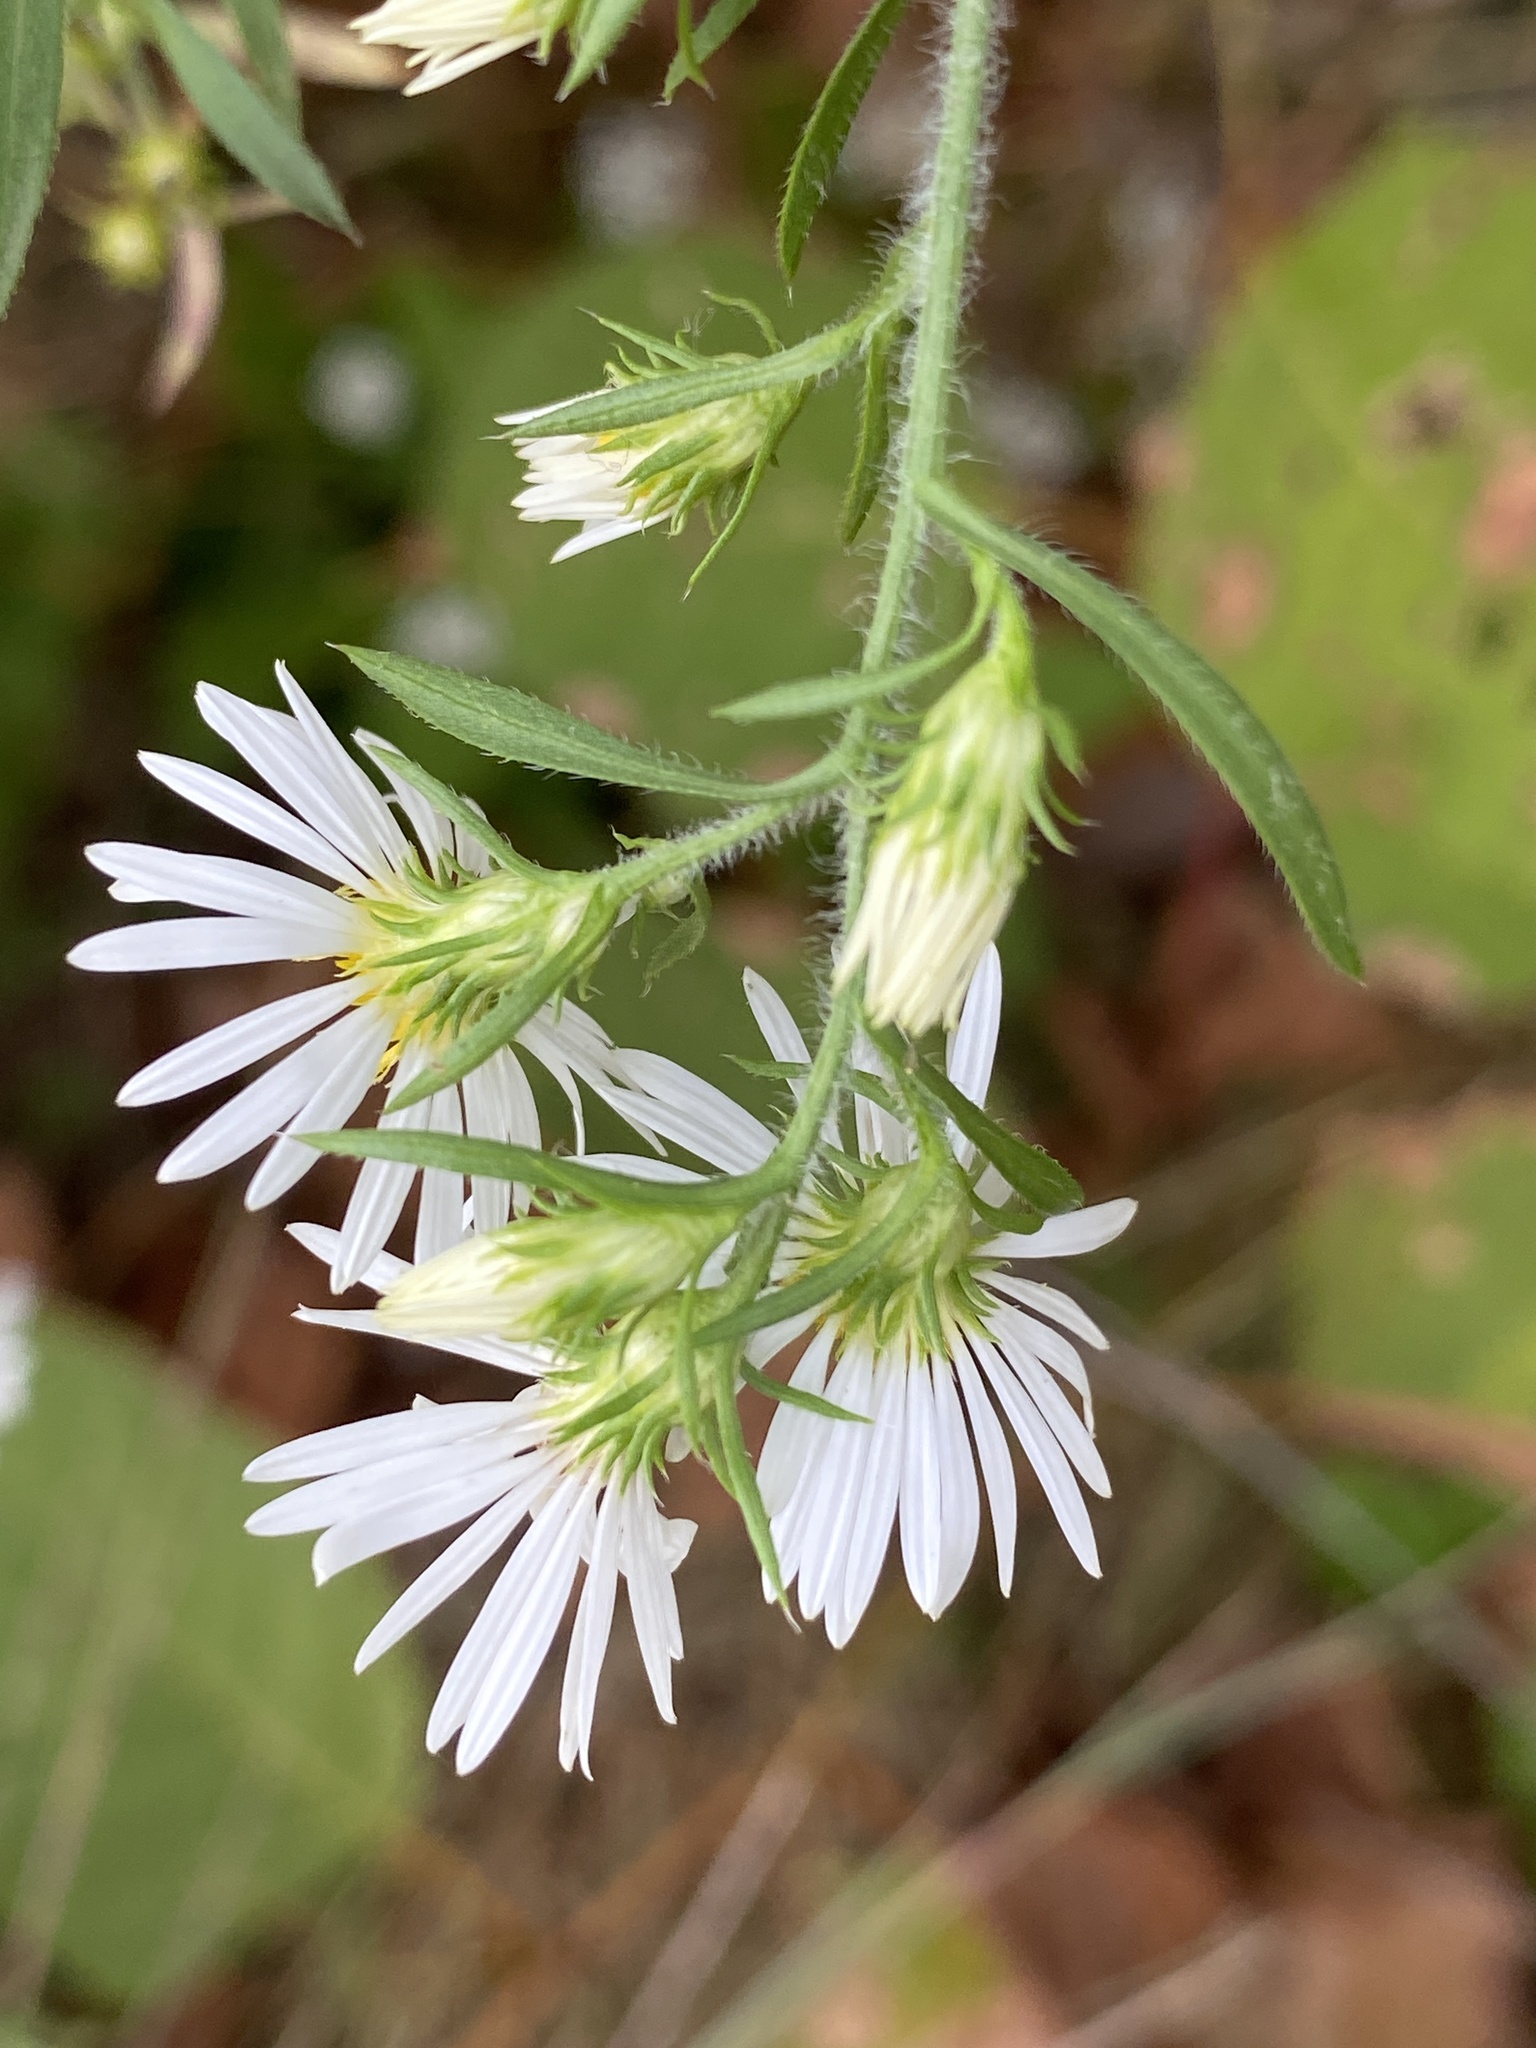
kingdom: Plantae
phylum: Tracheophyta
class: Magnoliopsida
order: Asterales
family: Asteraceae
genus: Symphyotrichum
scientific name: Symphyotrichum pilosum
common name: Awl aster
